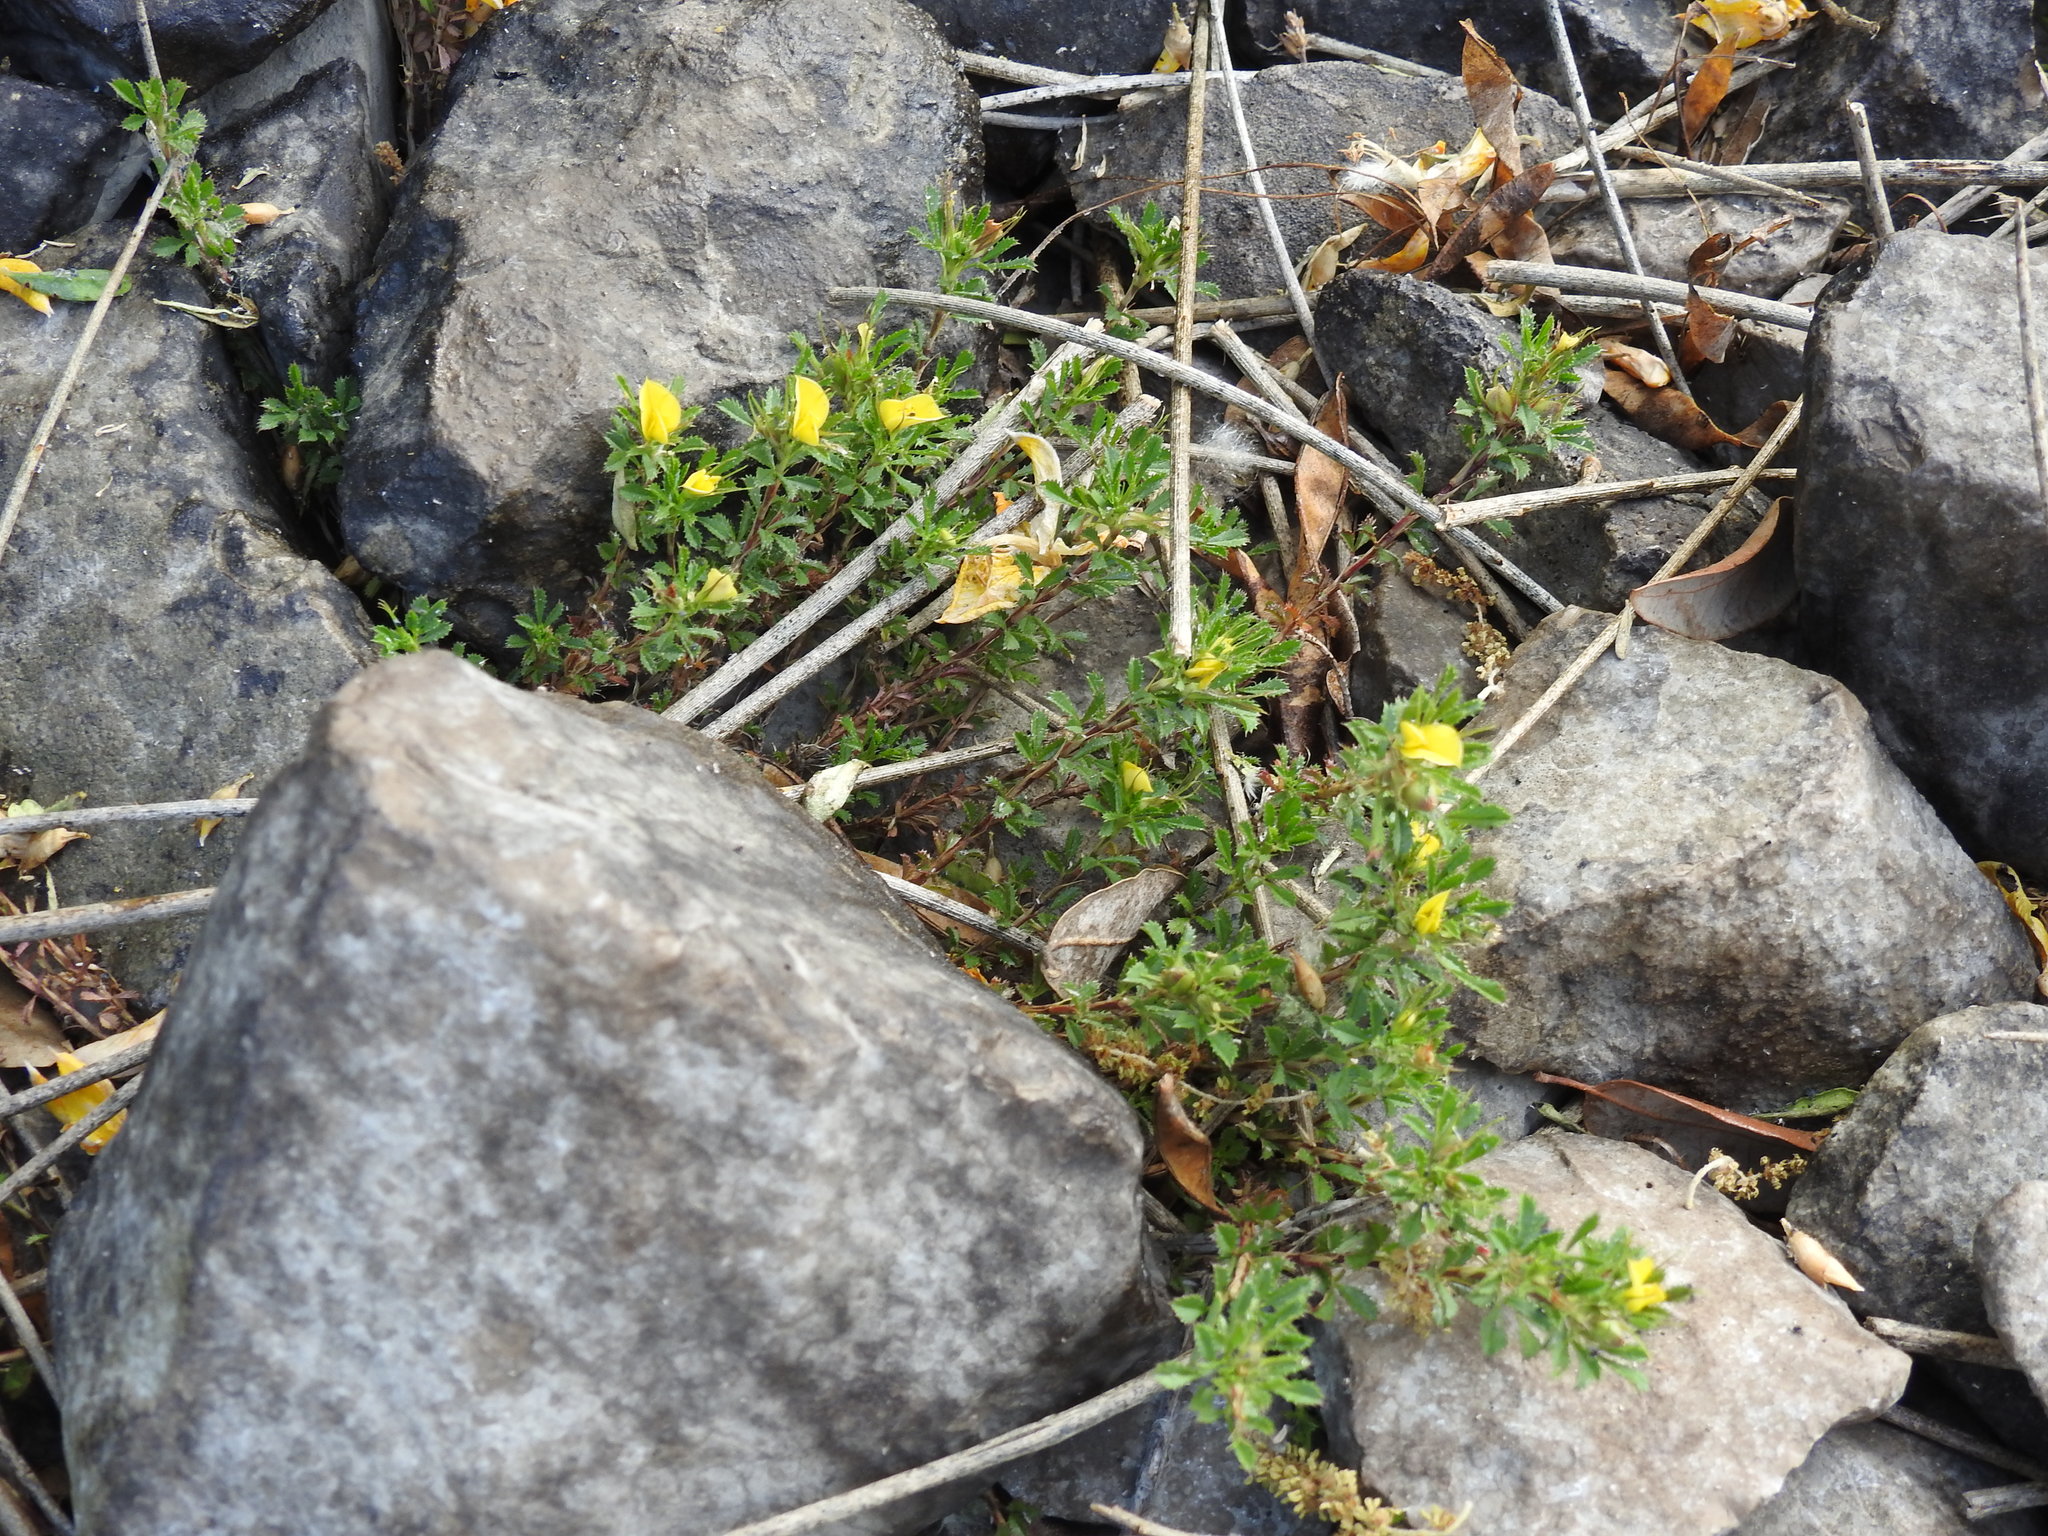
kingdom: Plantae
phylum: Tracheophyta
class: Magnoliopsida
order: Fabales
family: Fabaceae
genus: Ononis
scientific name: Ononis minutissima
